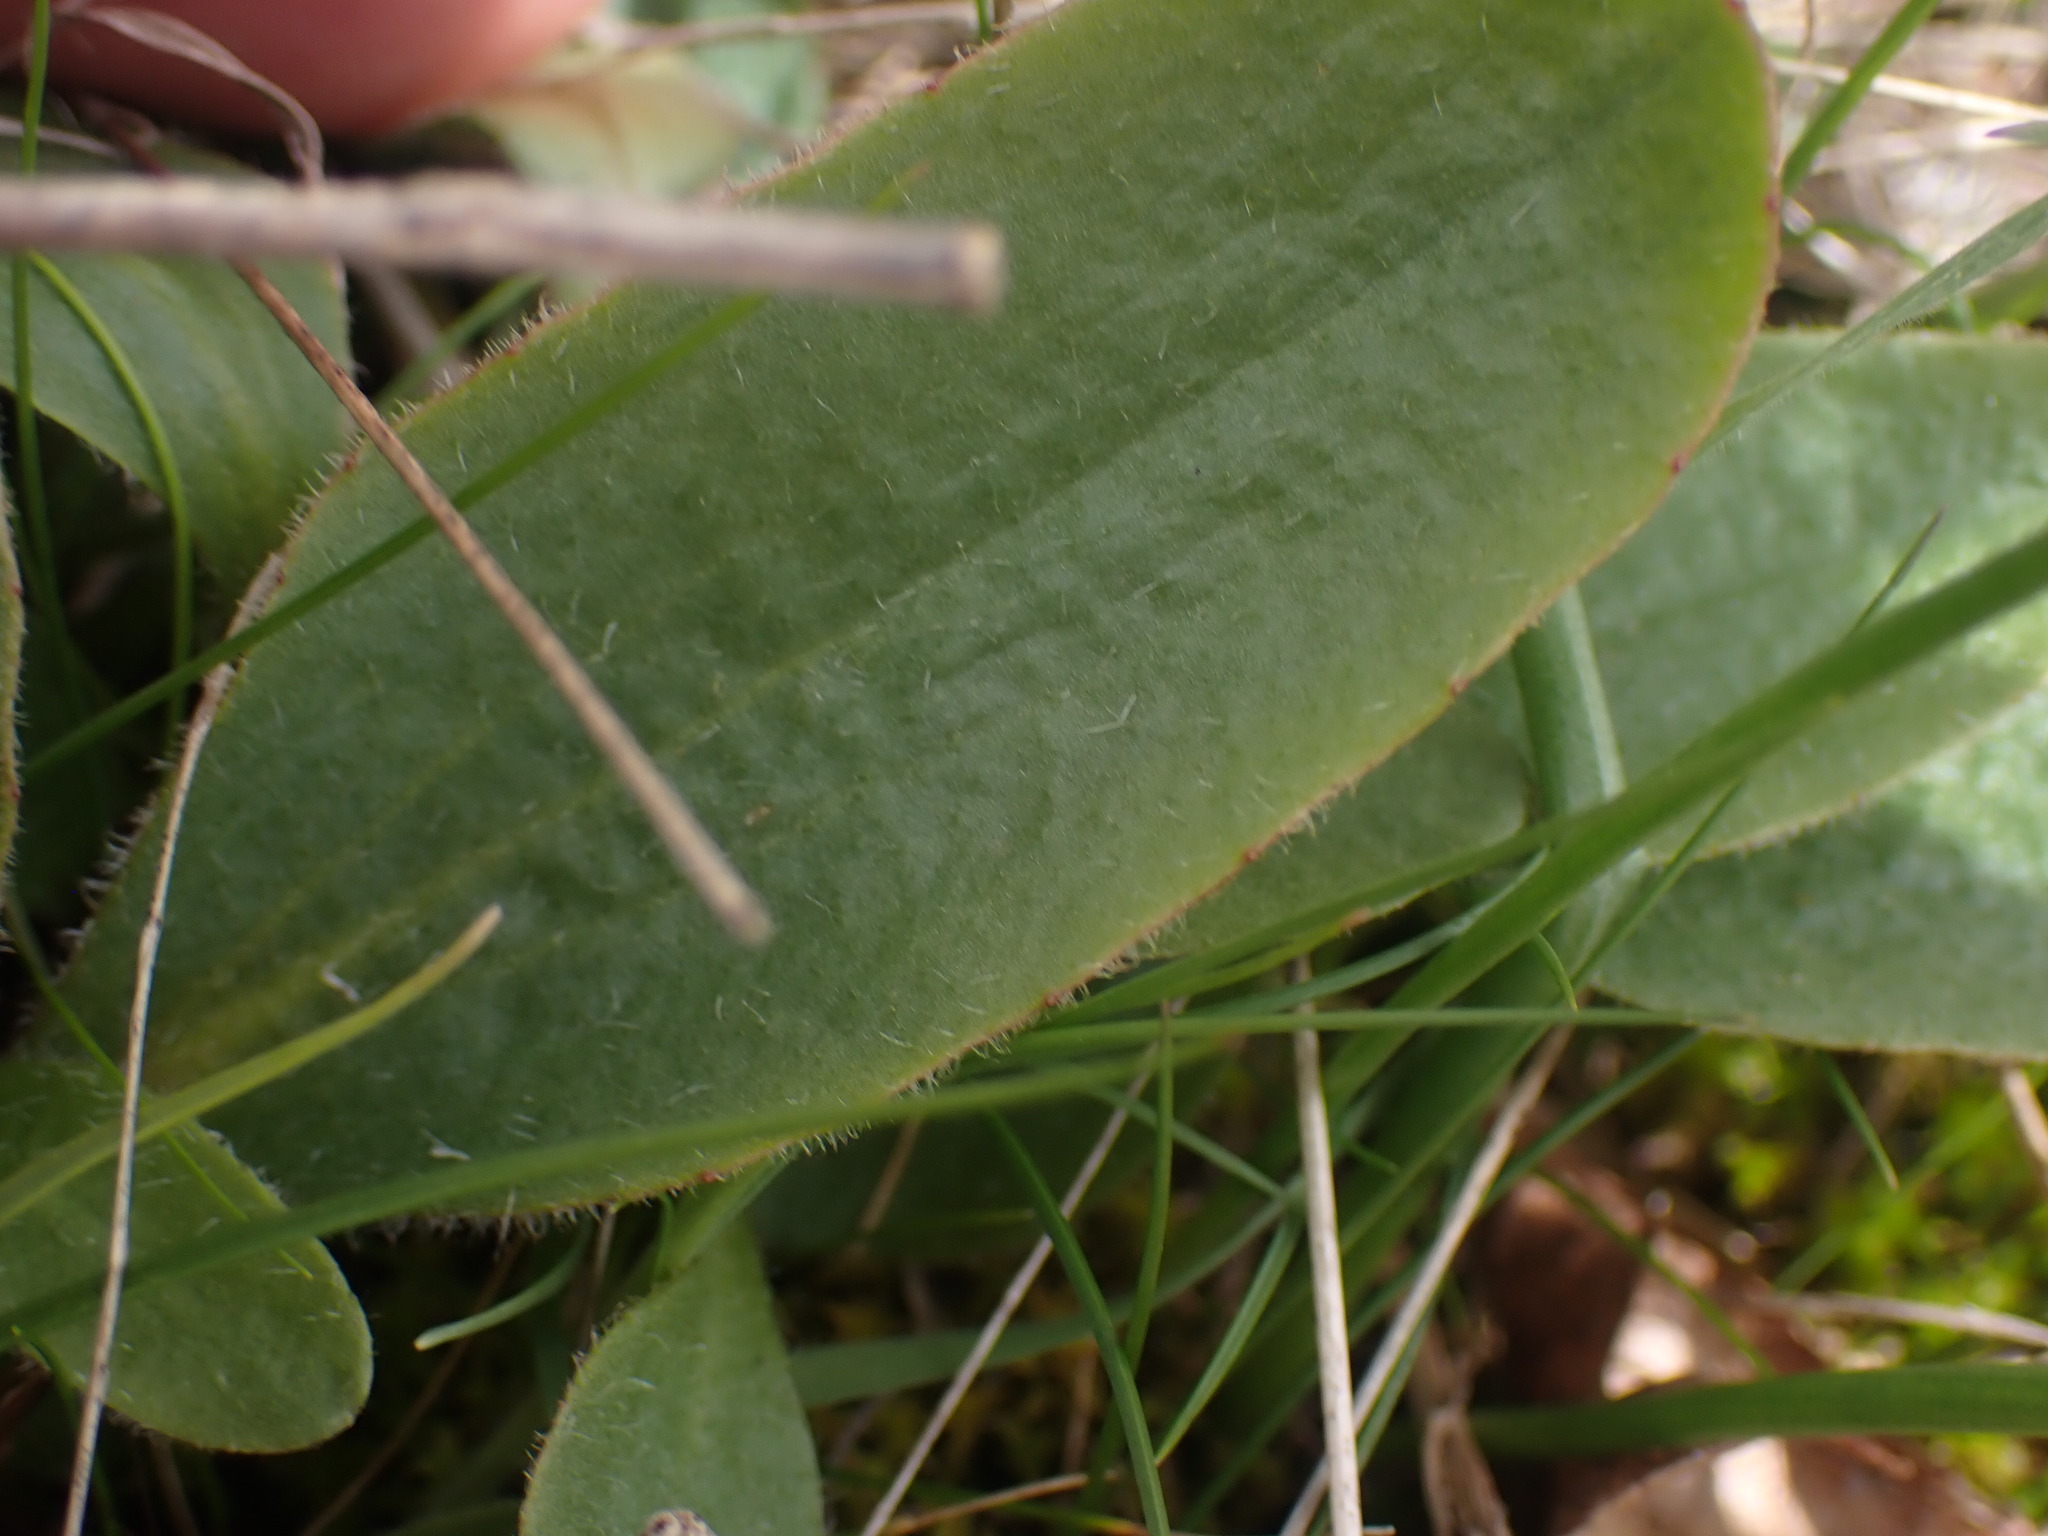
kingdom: Plantae
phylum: Tracheophyta
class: Magnoliopsida
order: Saxifragales
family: Saxifragaceae
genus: Micranthes
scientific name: Micranthes integrifolia
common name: Wholeleaf saxifrage
